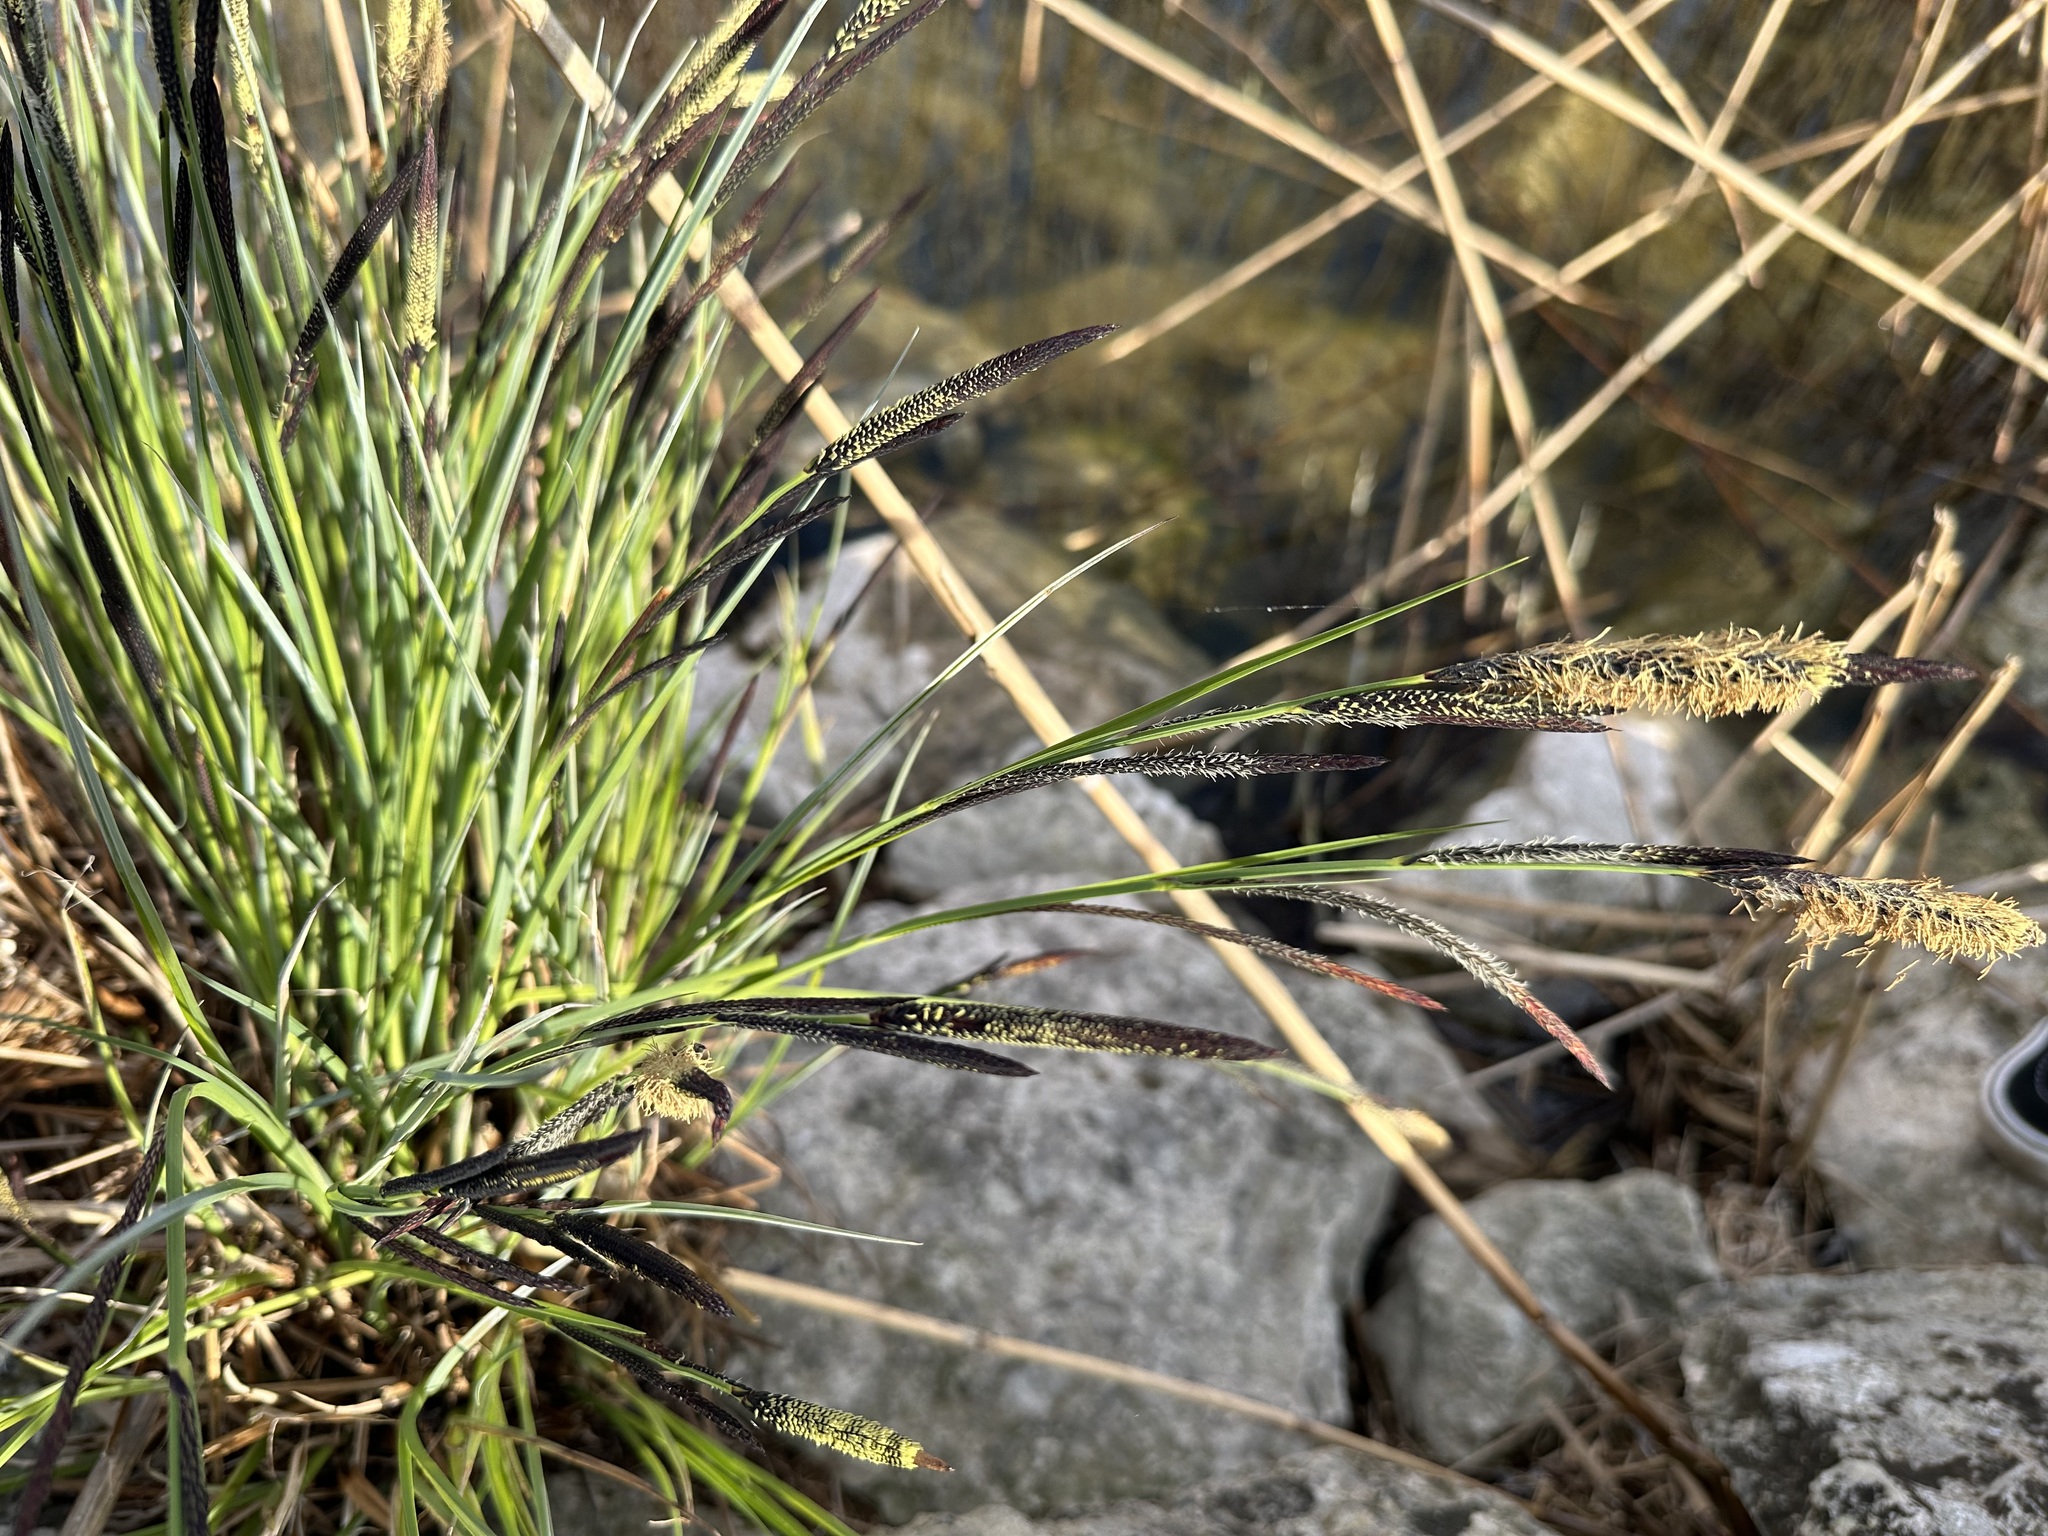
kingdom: Plantae
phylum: Tracheophyta
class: Liliopsida
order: Poales
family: Cyperaceae
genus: Carex
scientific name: Carex elata
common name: Tufted sedge
